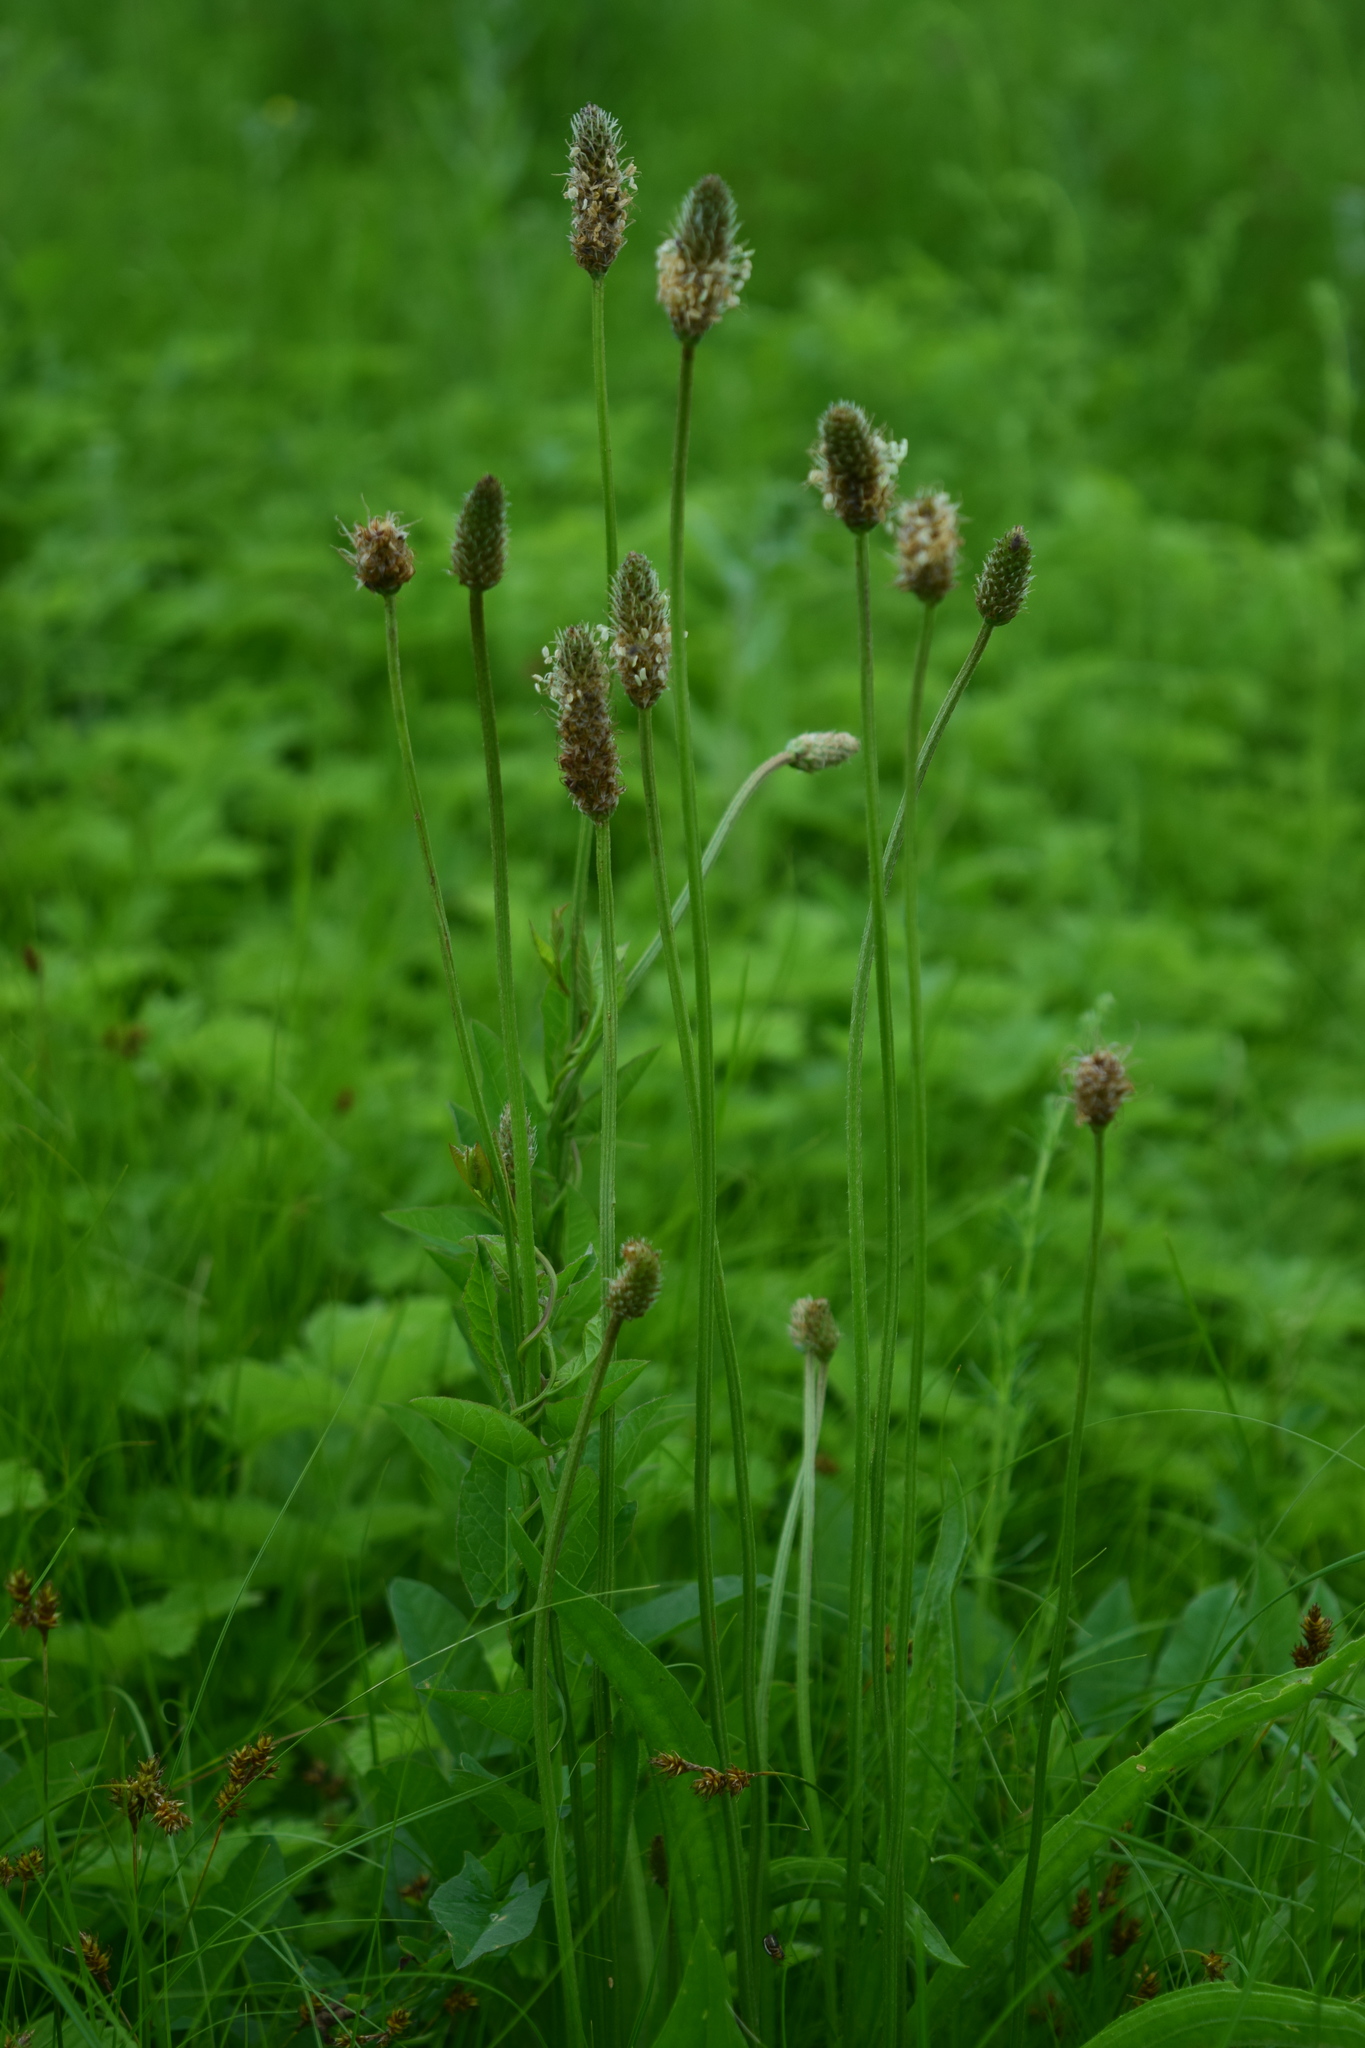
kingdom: Plantae
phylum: Tracheophyta
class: Magnoliopsida
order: Lamiales
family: Plantaginaceae
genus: Plantago
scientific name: Plantago lanceolata
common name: Ribwort plantain
